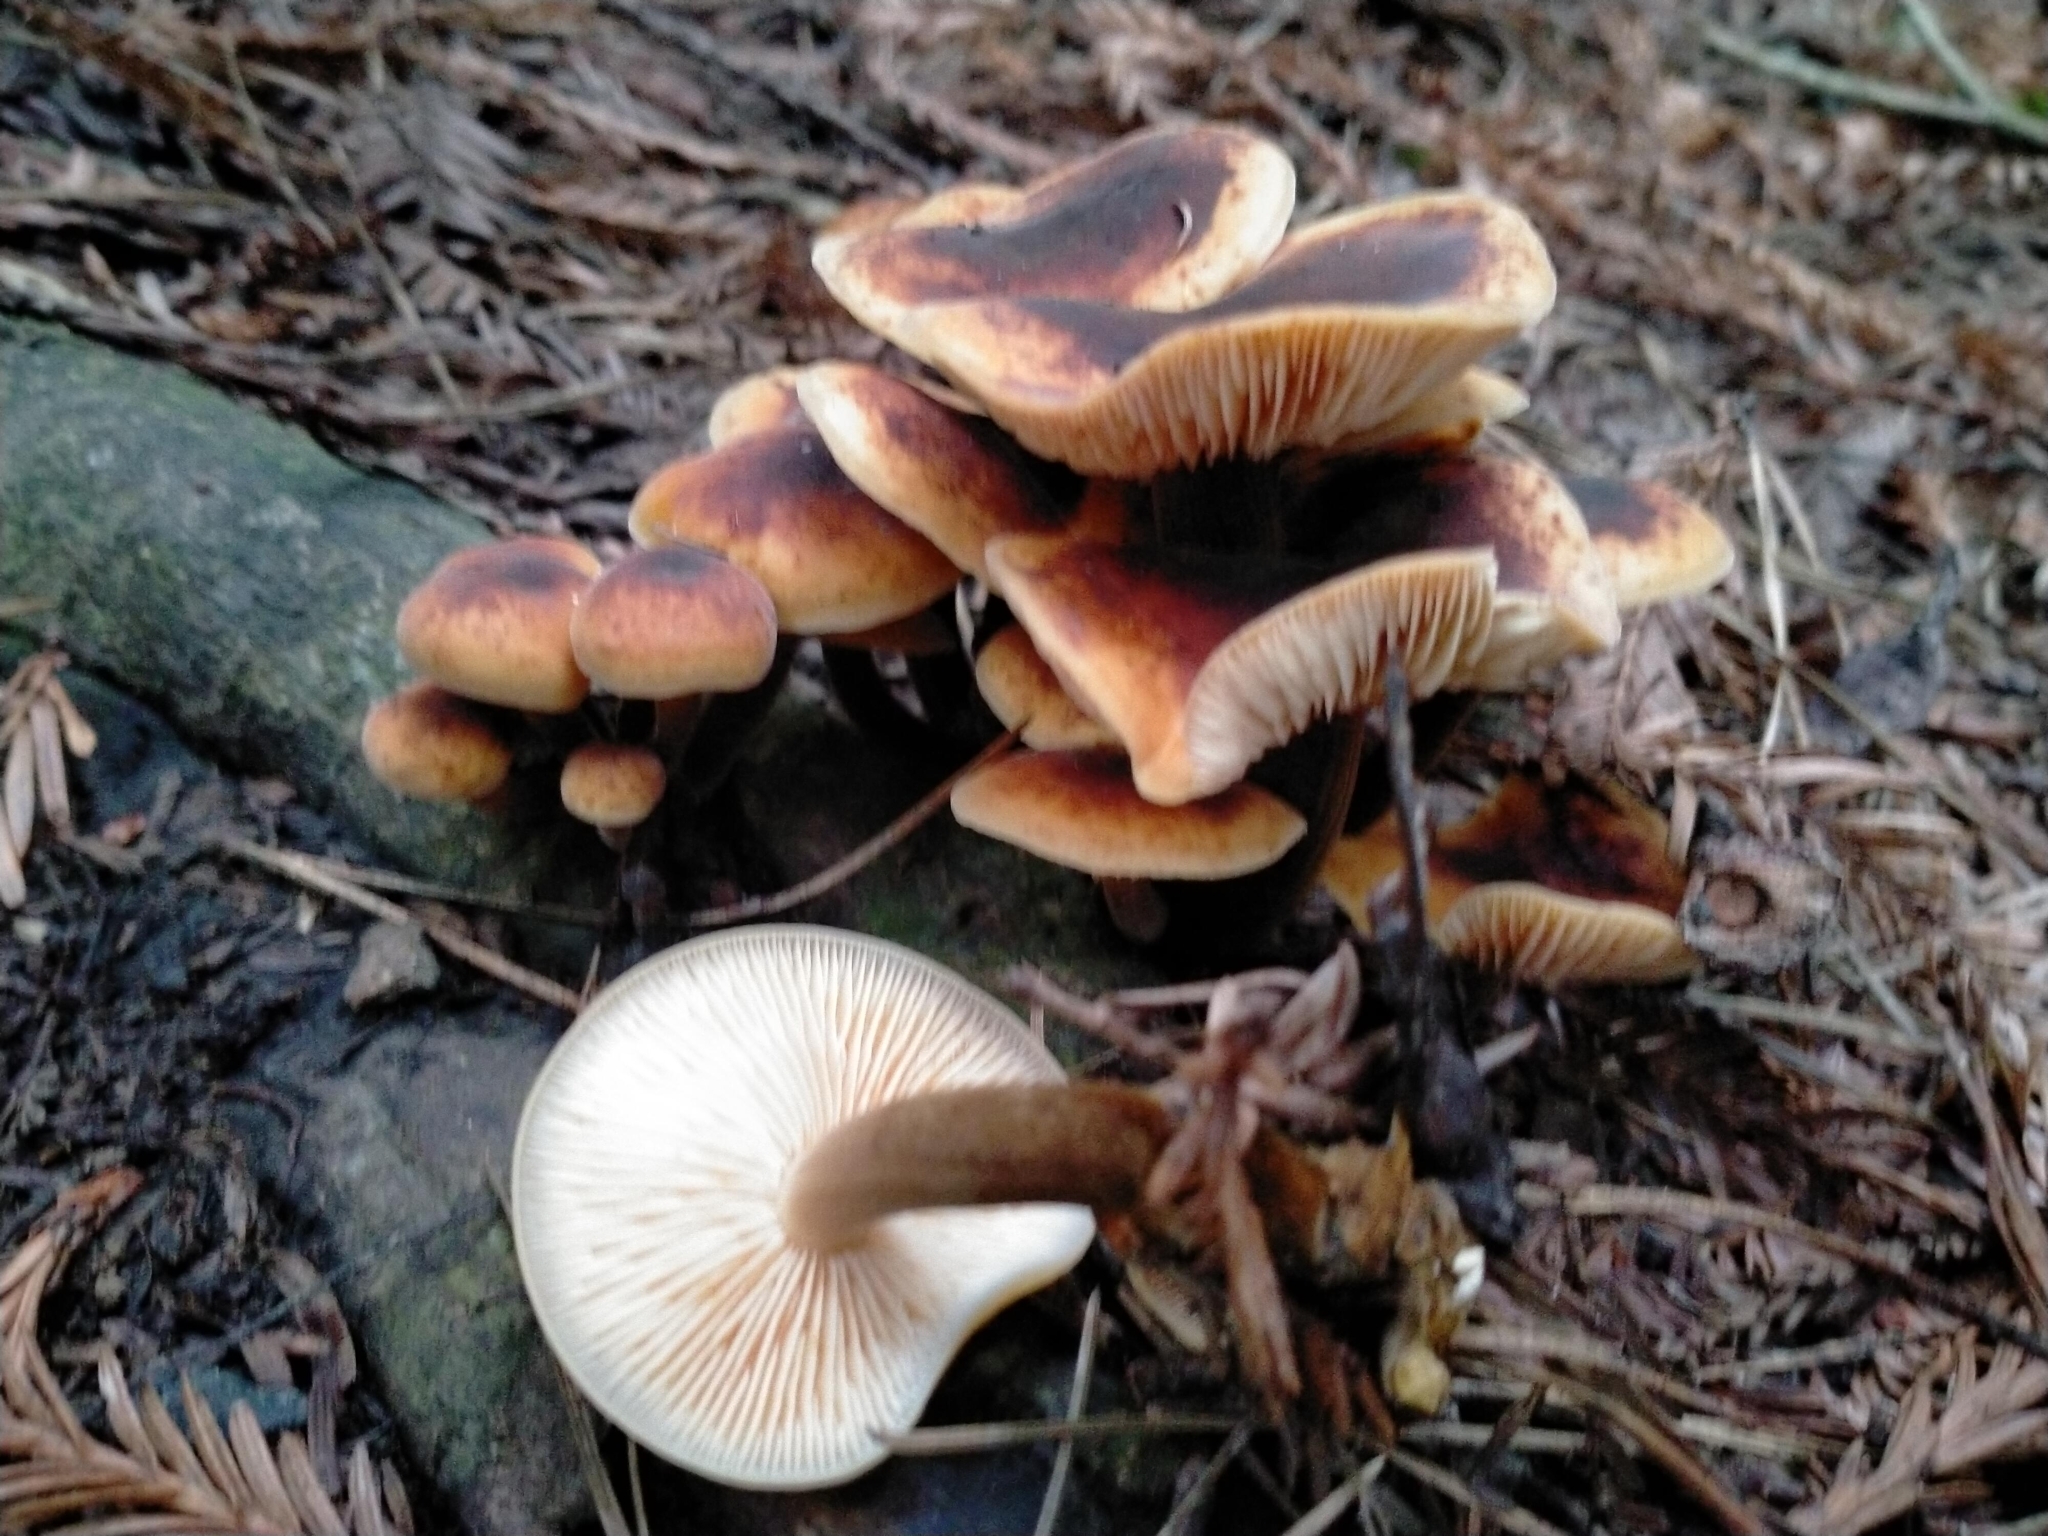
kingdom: Fungi
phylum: Basidiomycota
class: Agaricomycetes
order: Agaricales
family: Physalacriaceae
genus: Flammulina
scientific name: Flammulina velutipes
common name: Velvet shank
